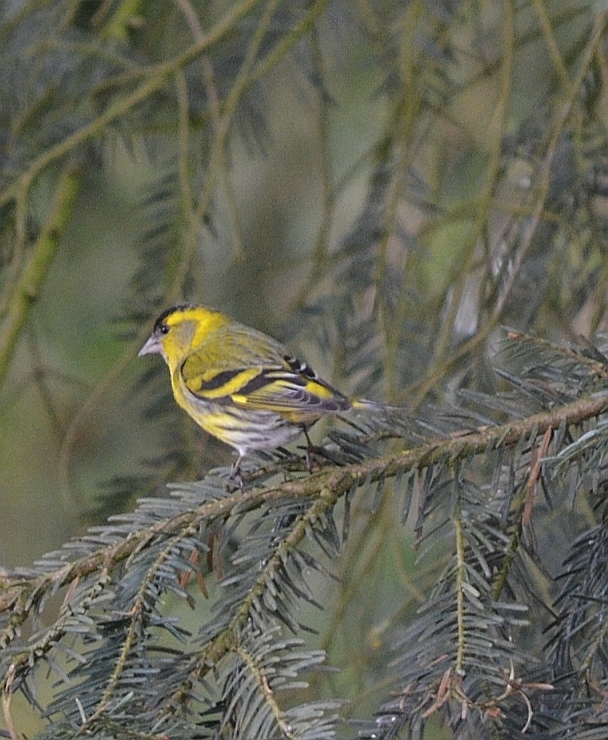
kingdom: Animalia
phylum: Chordata
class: Aves
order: Passeriformes
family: Fringillidae
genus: Spinus
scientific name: Spinus spinus
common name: Eurasian siskin
